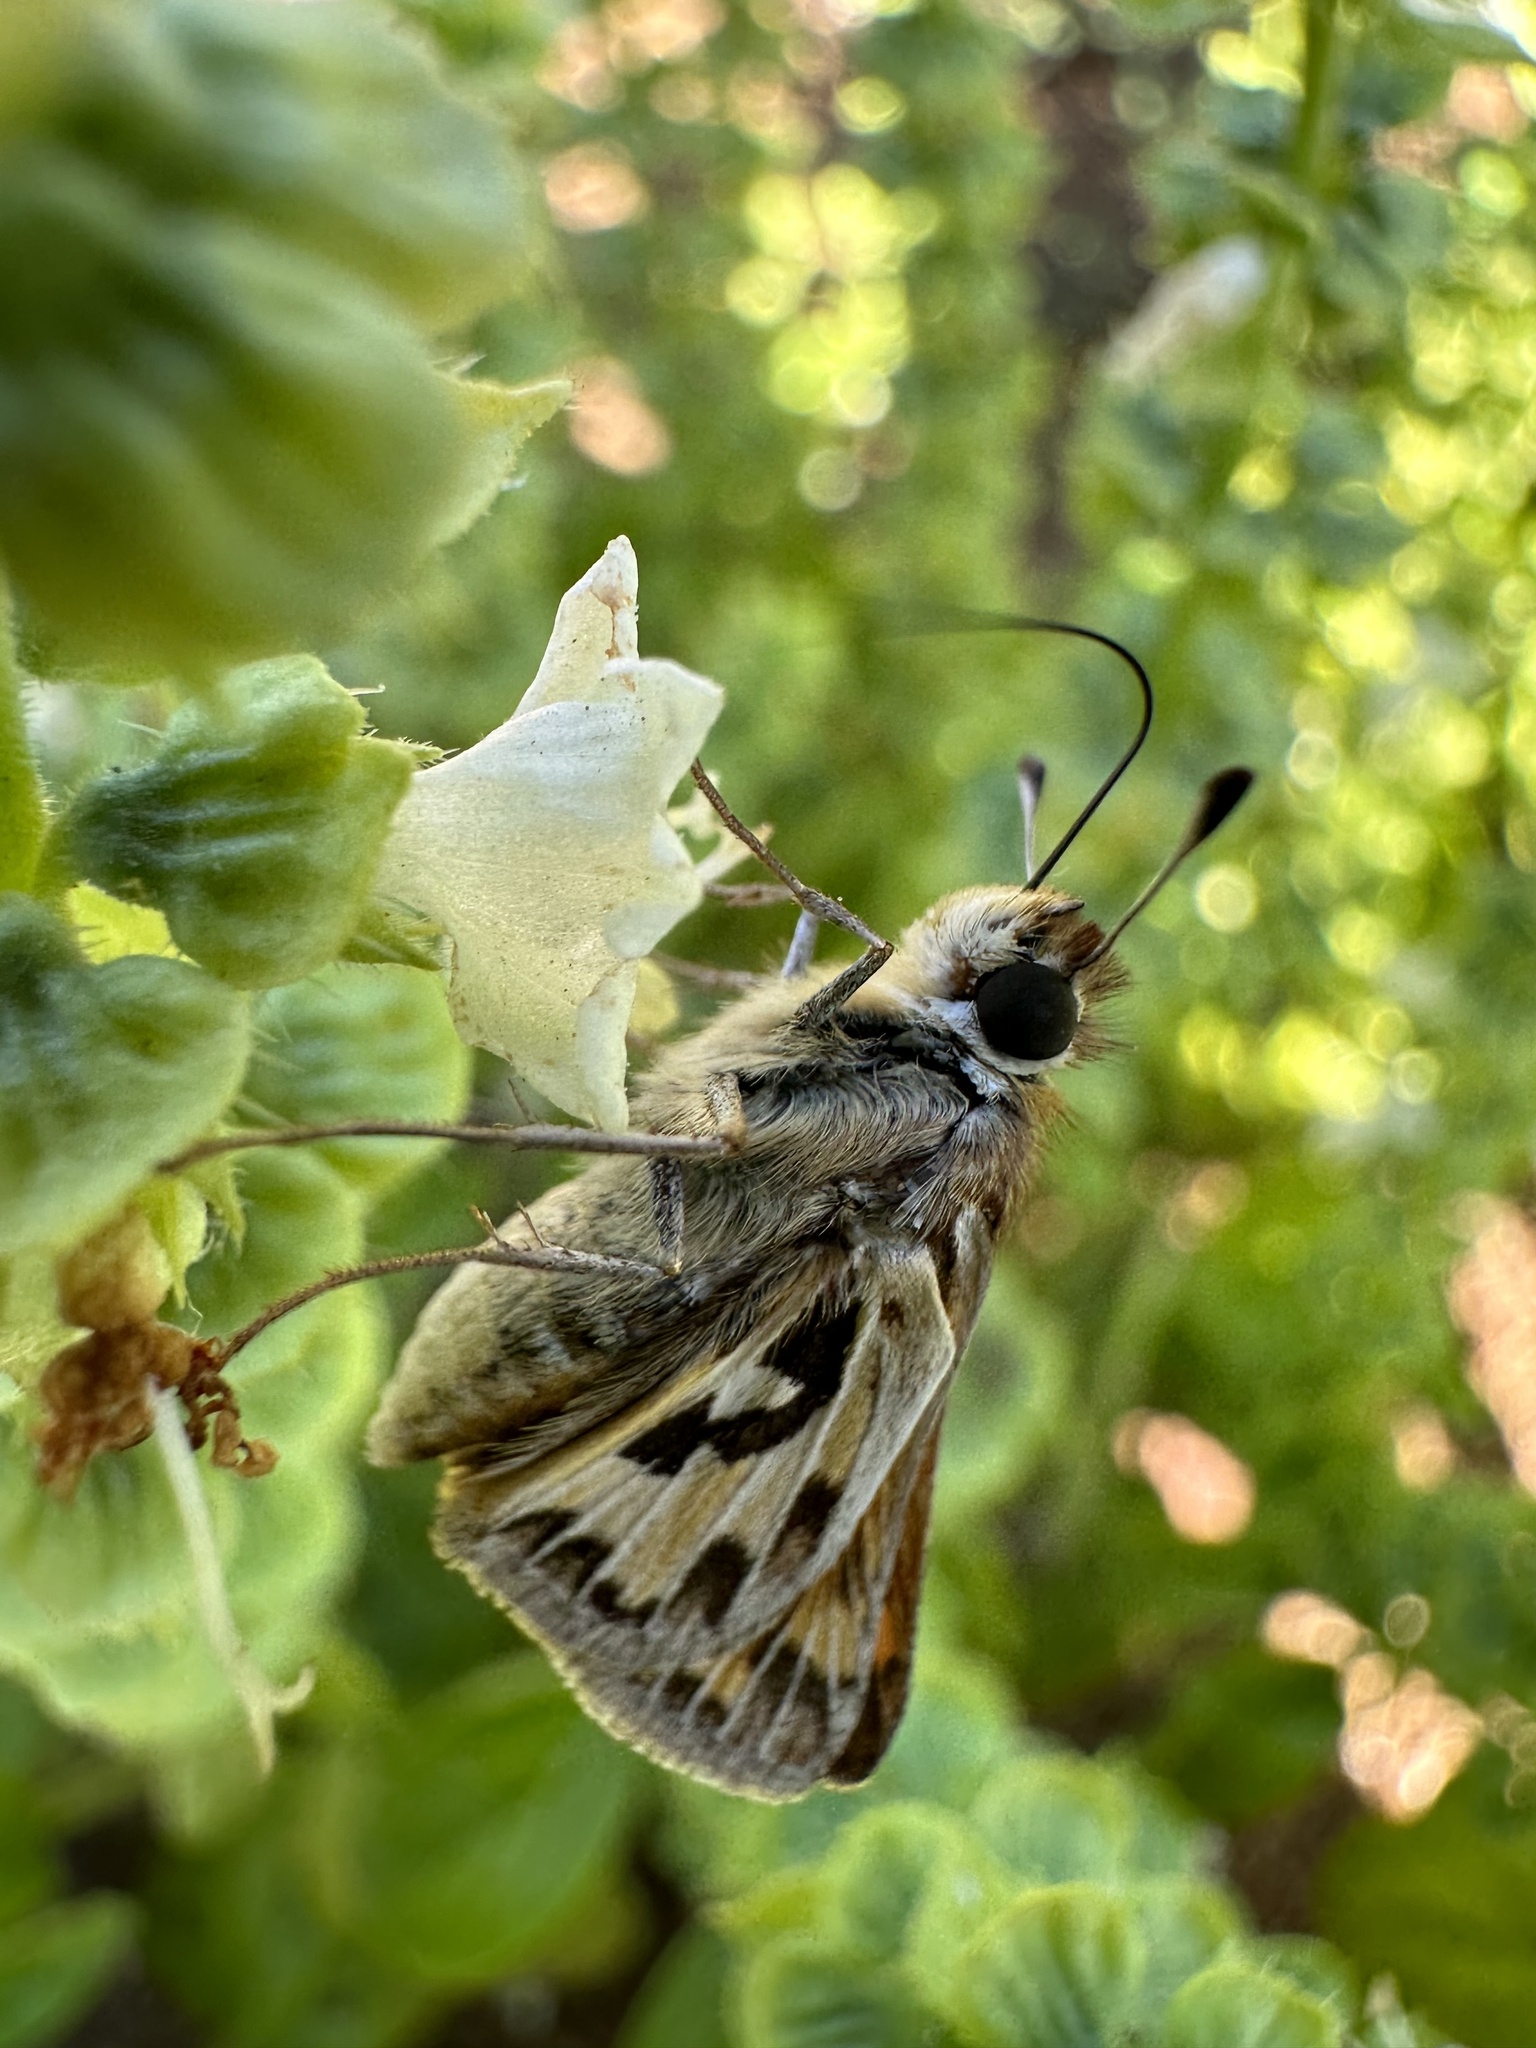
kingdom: Animalia
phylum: Arthropoda
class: Insecta
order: Lepidoptera
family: Hesperiidae
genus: Hylephila
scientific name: Hylephila fasciolata
